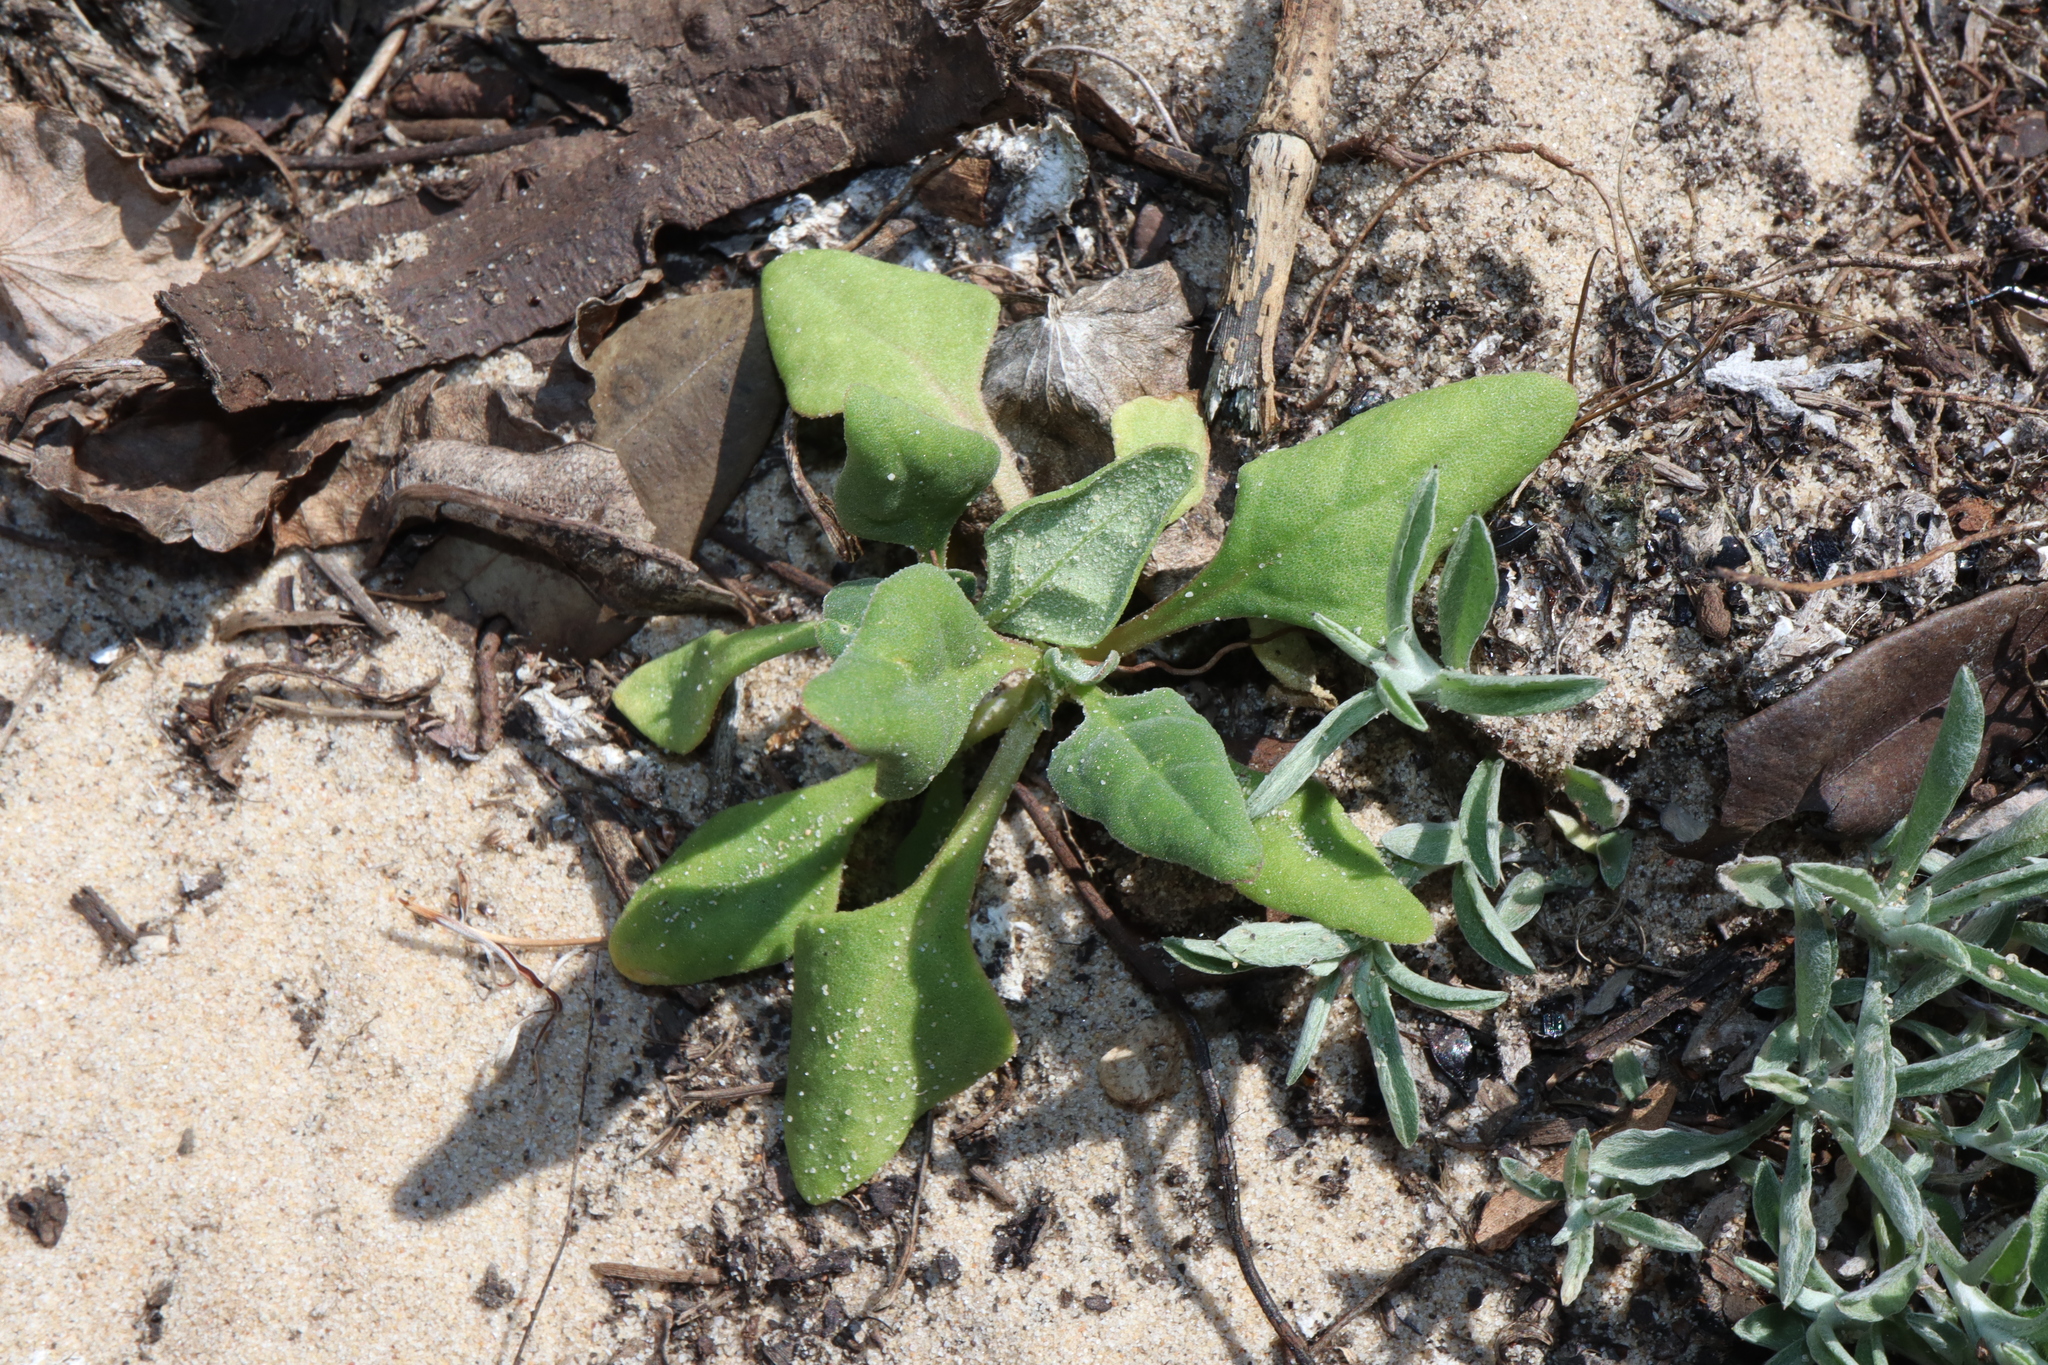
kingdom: Plantae
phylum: Tracheophyta
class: Magnoliopsida
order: Caryophyllales
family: Aizoaceae
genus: Tetragonia
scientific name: Tetragonia tetragonoides
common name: New zealand-spinach
